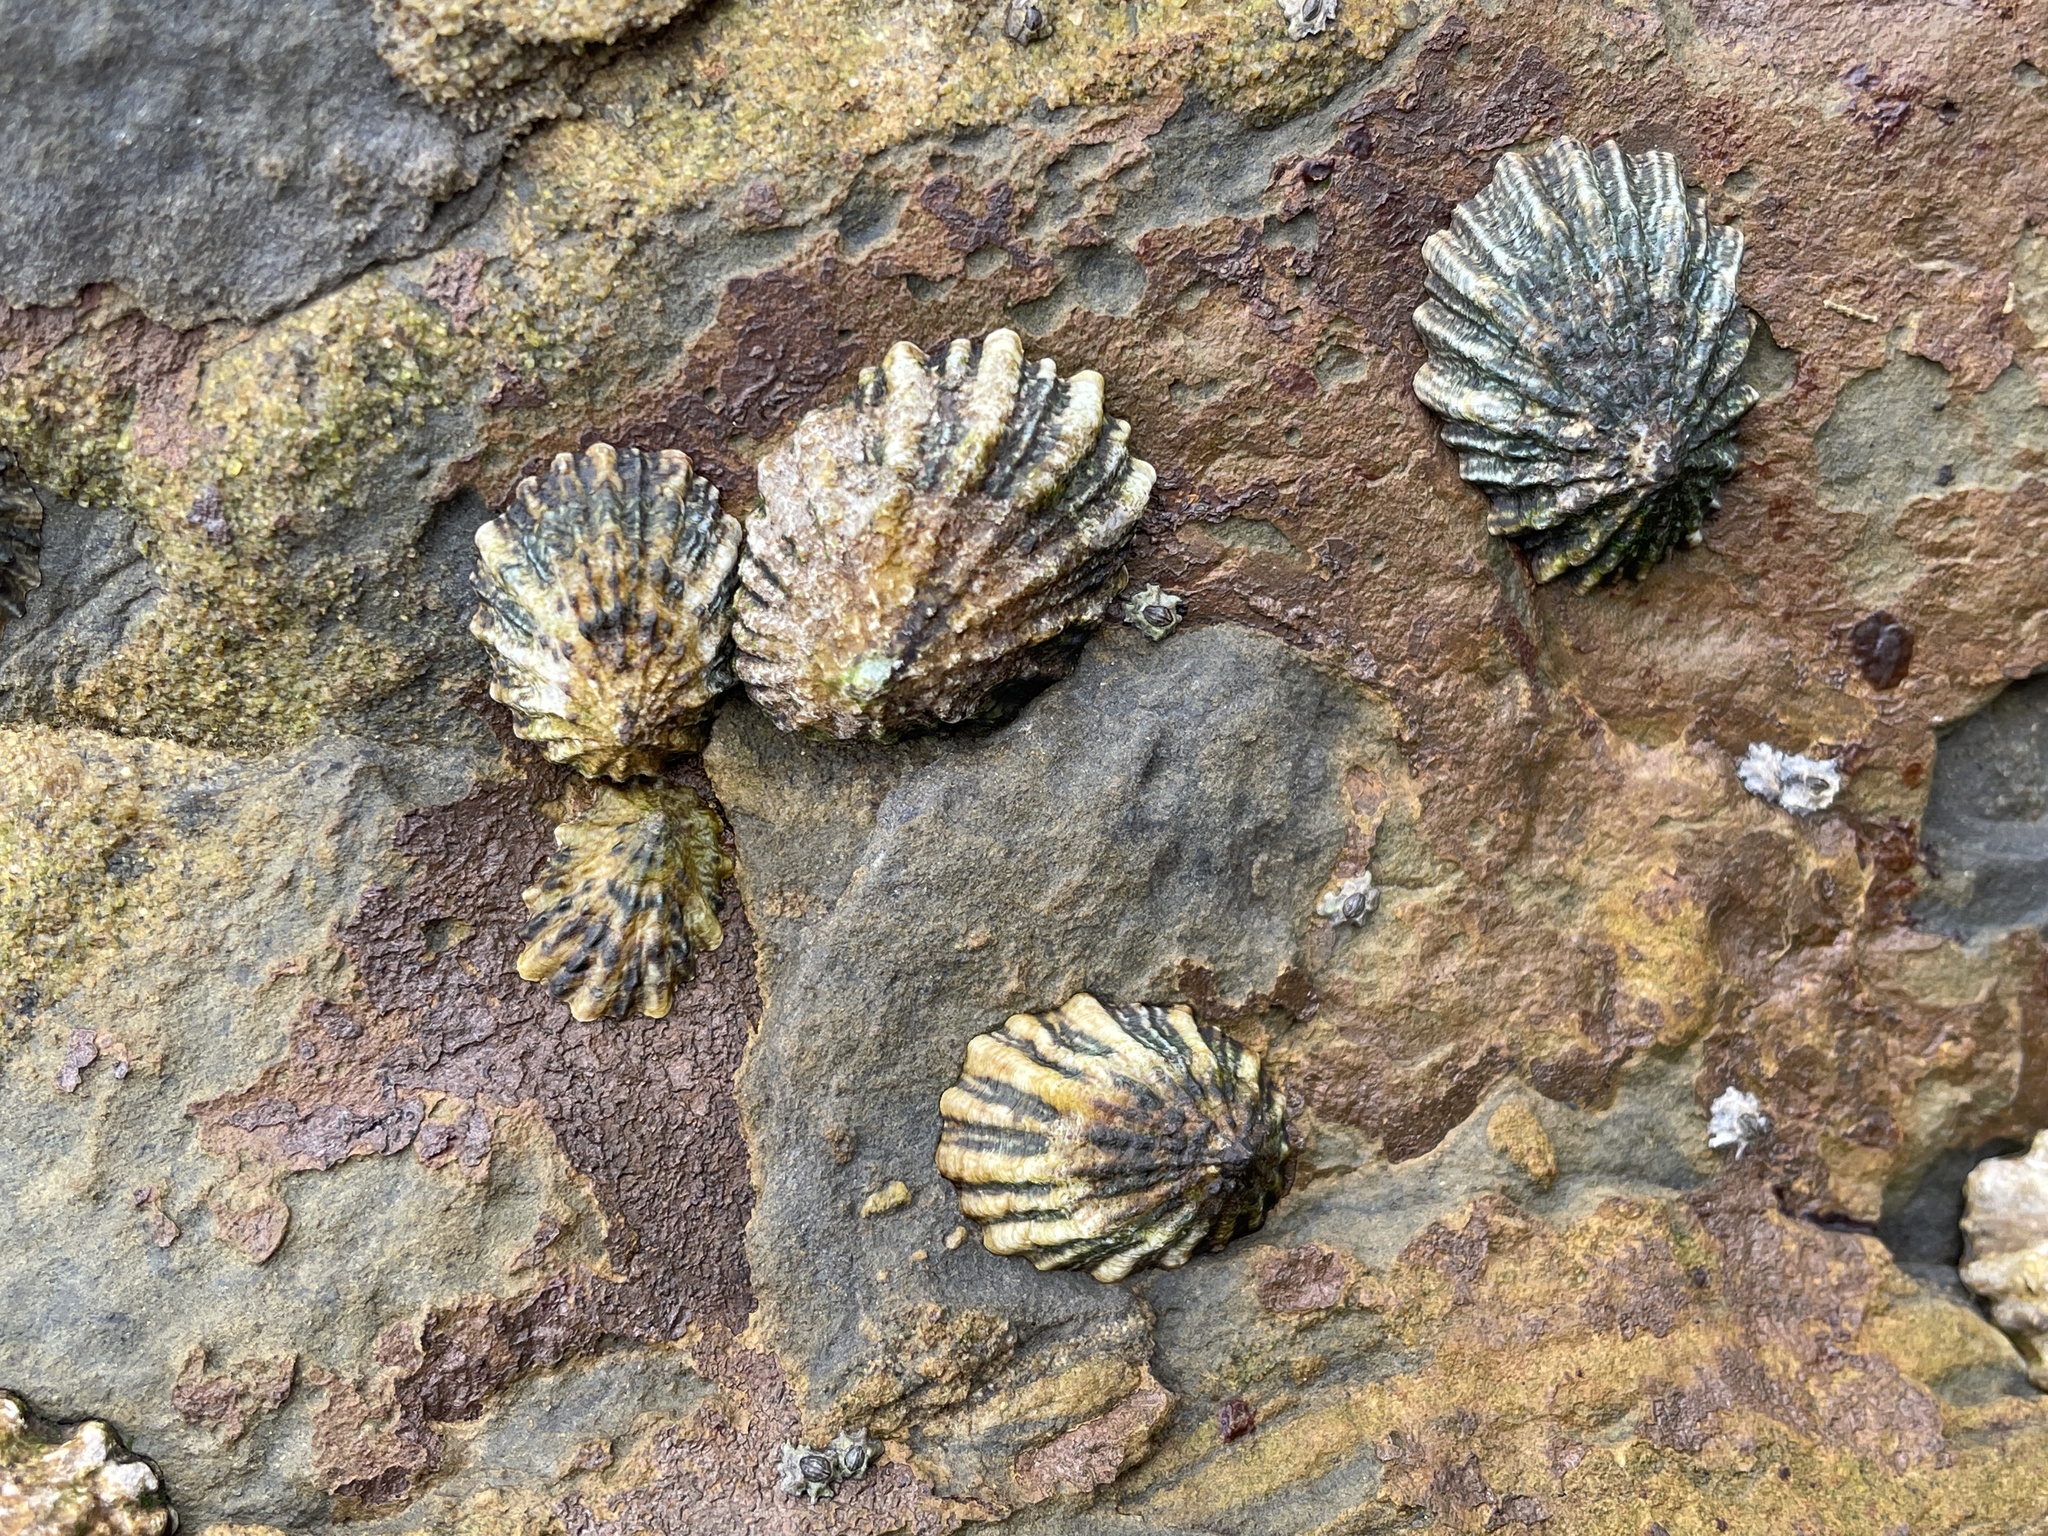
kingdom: Animalia
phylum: Mollusca
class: Gastropoda
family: Lottiidae
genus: Lottia
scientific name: Lottia scabra
